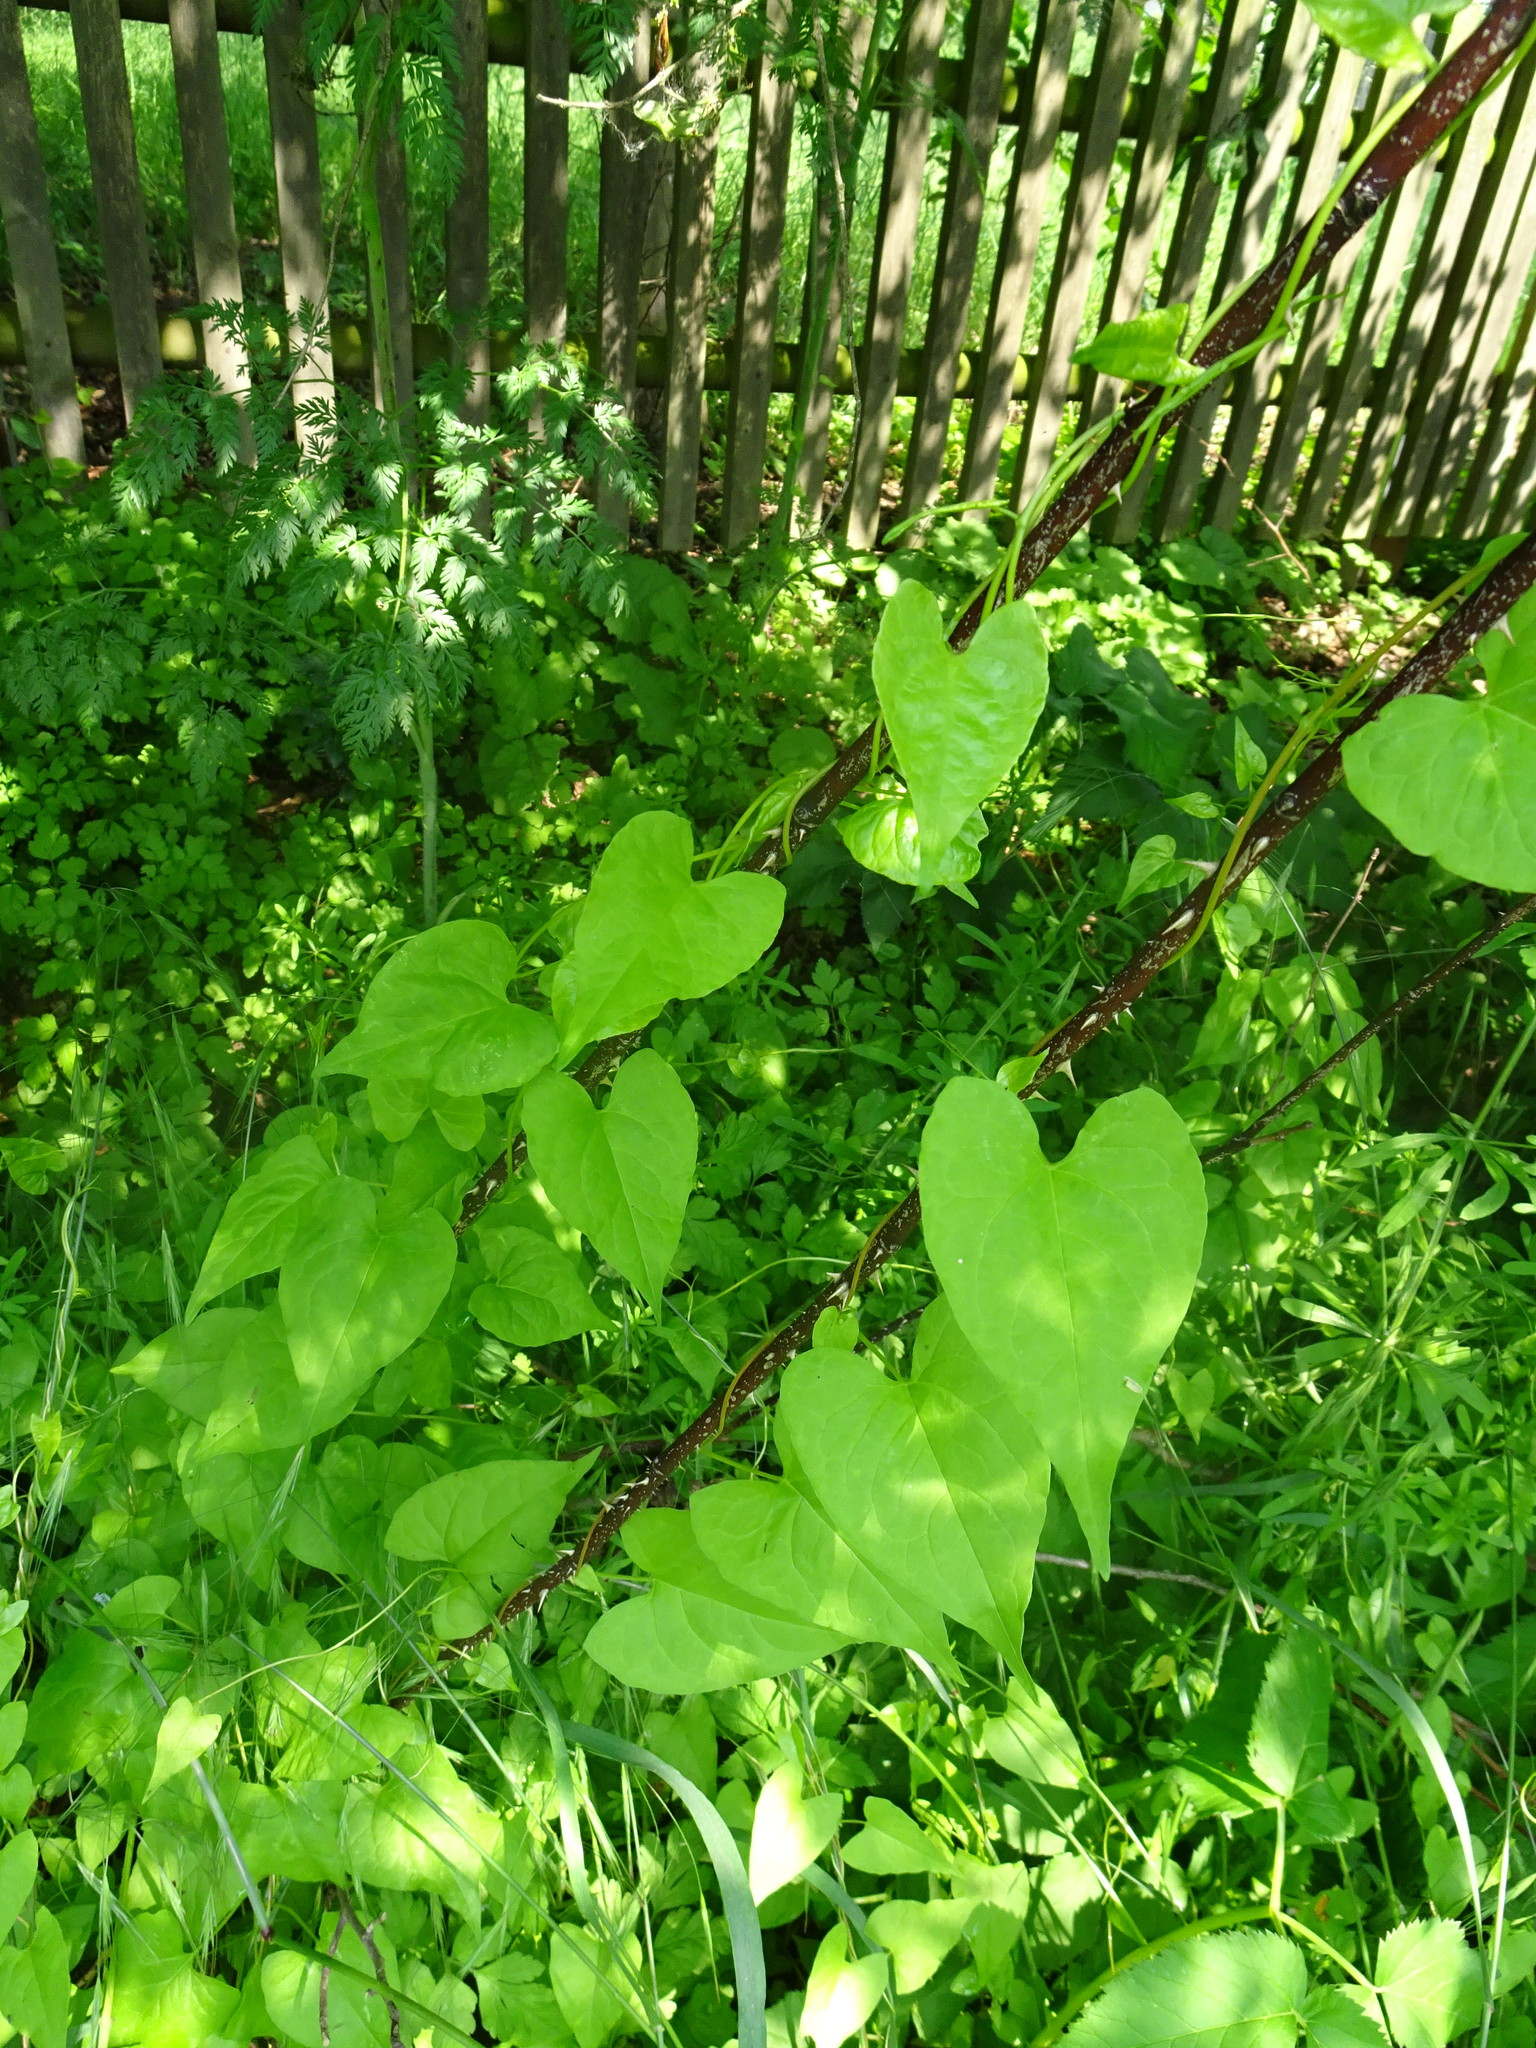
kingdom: Plantae
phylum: Tracheophyta
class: Magnoliopsida
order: Solanales
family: Convolvulaceae
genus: Calystegia
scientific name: Calystegia sepium
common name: Hedge bindweed
